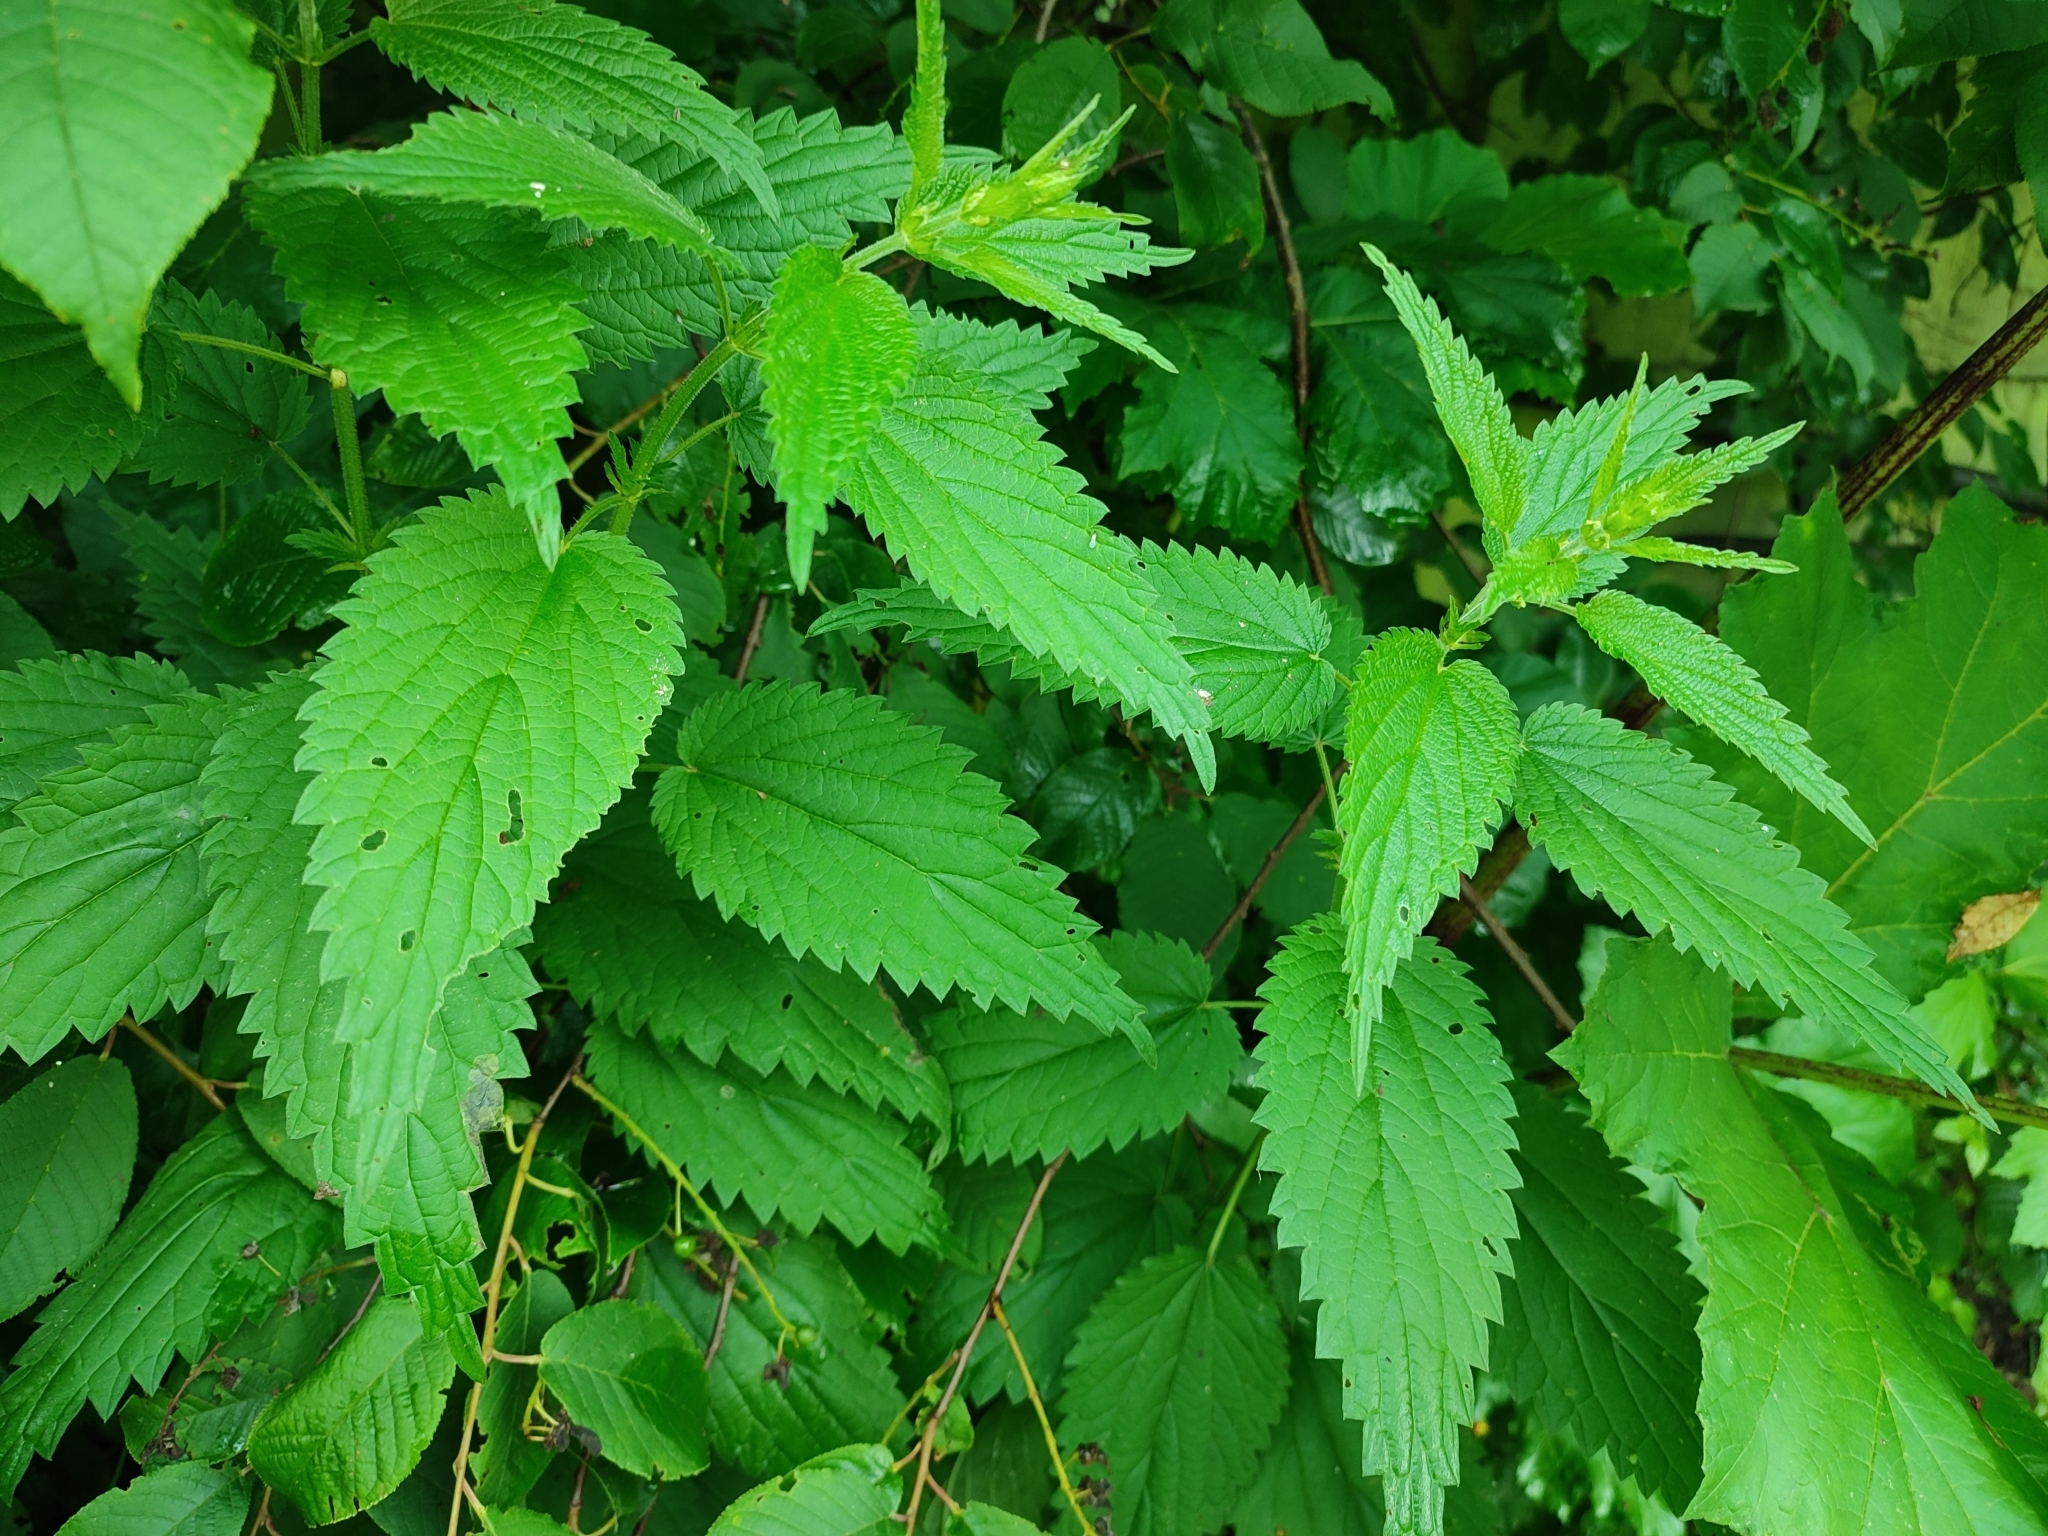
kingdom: Plantae
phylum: Tracheophyta
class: Magnoliopsida
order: Rosales
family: Urticaceae
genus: Urtica
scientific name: Urtica dioica
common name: Common nettle
